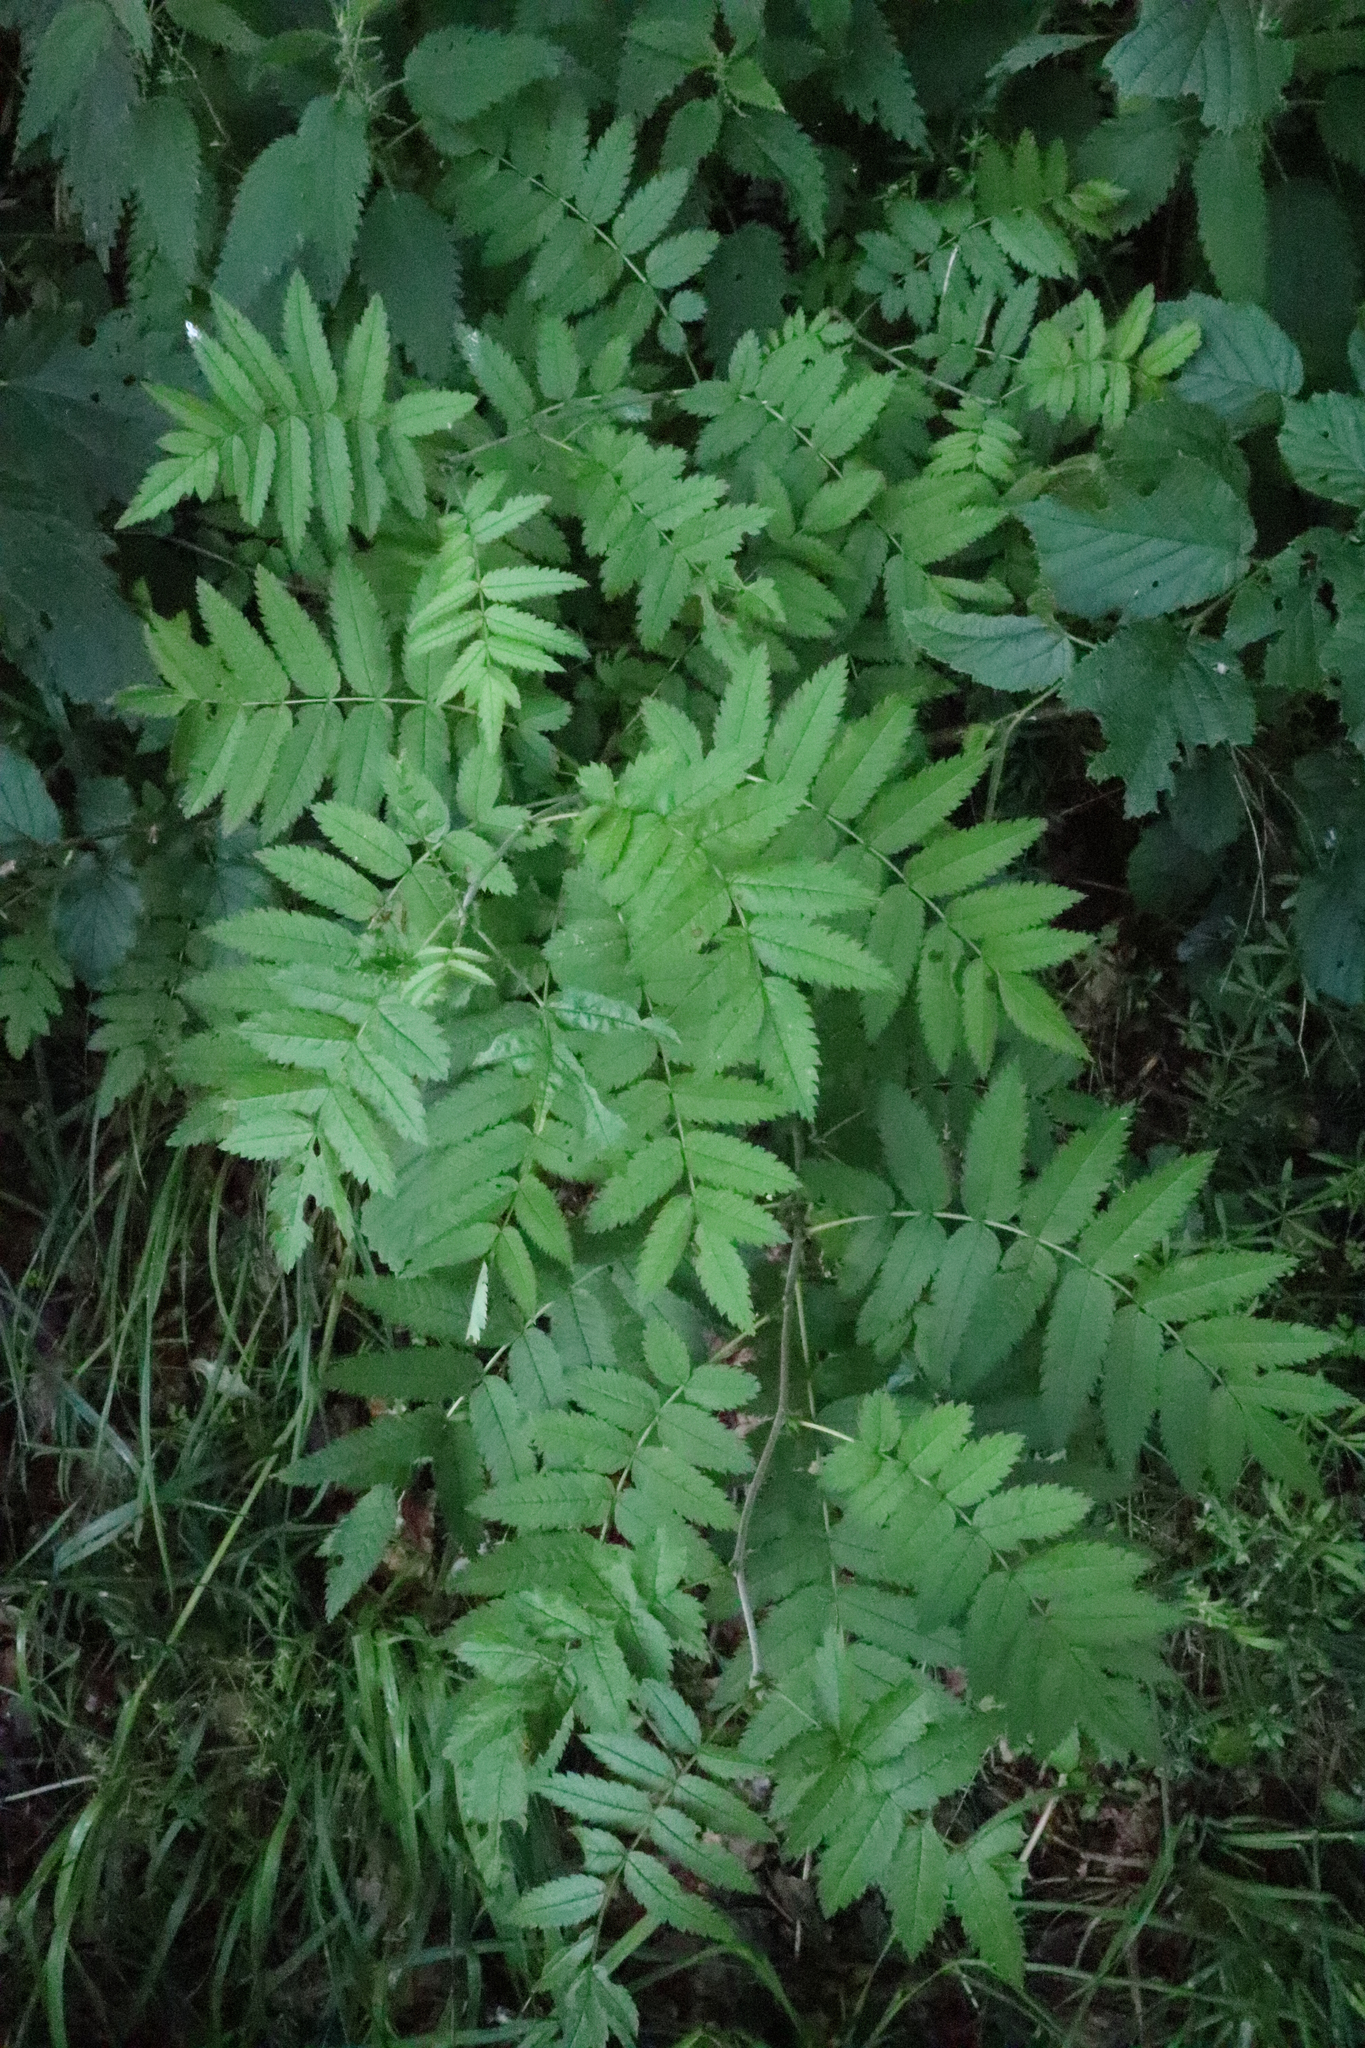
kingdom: Plantae
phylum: Tracheophyta
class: Magnoliopsida
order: Rosales
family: Rosaceae
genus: Sorbus
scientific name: Sorbus aucuparia
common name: Rowan
